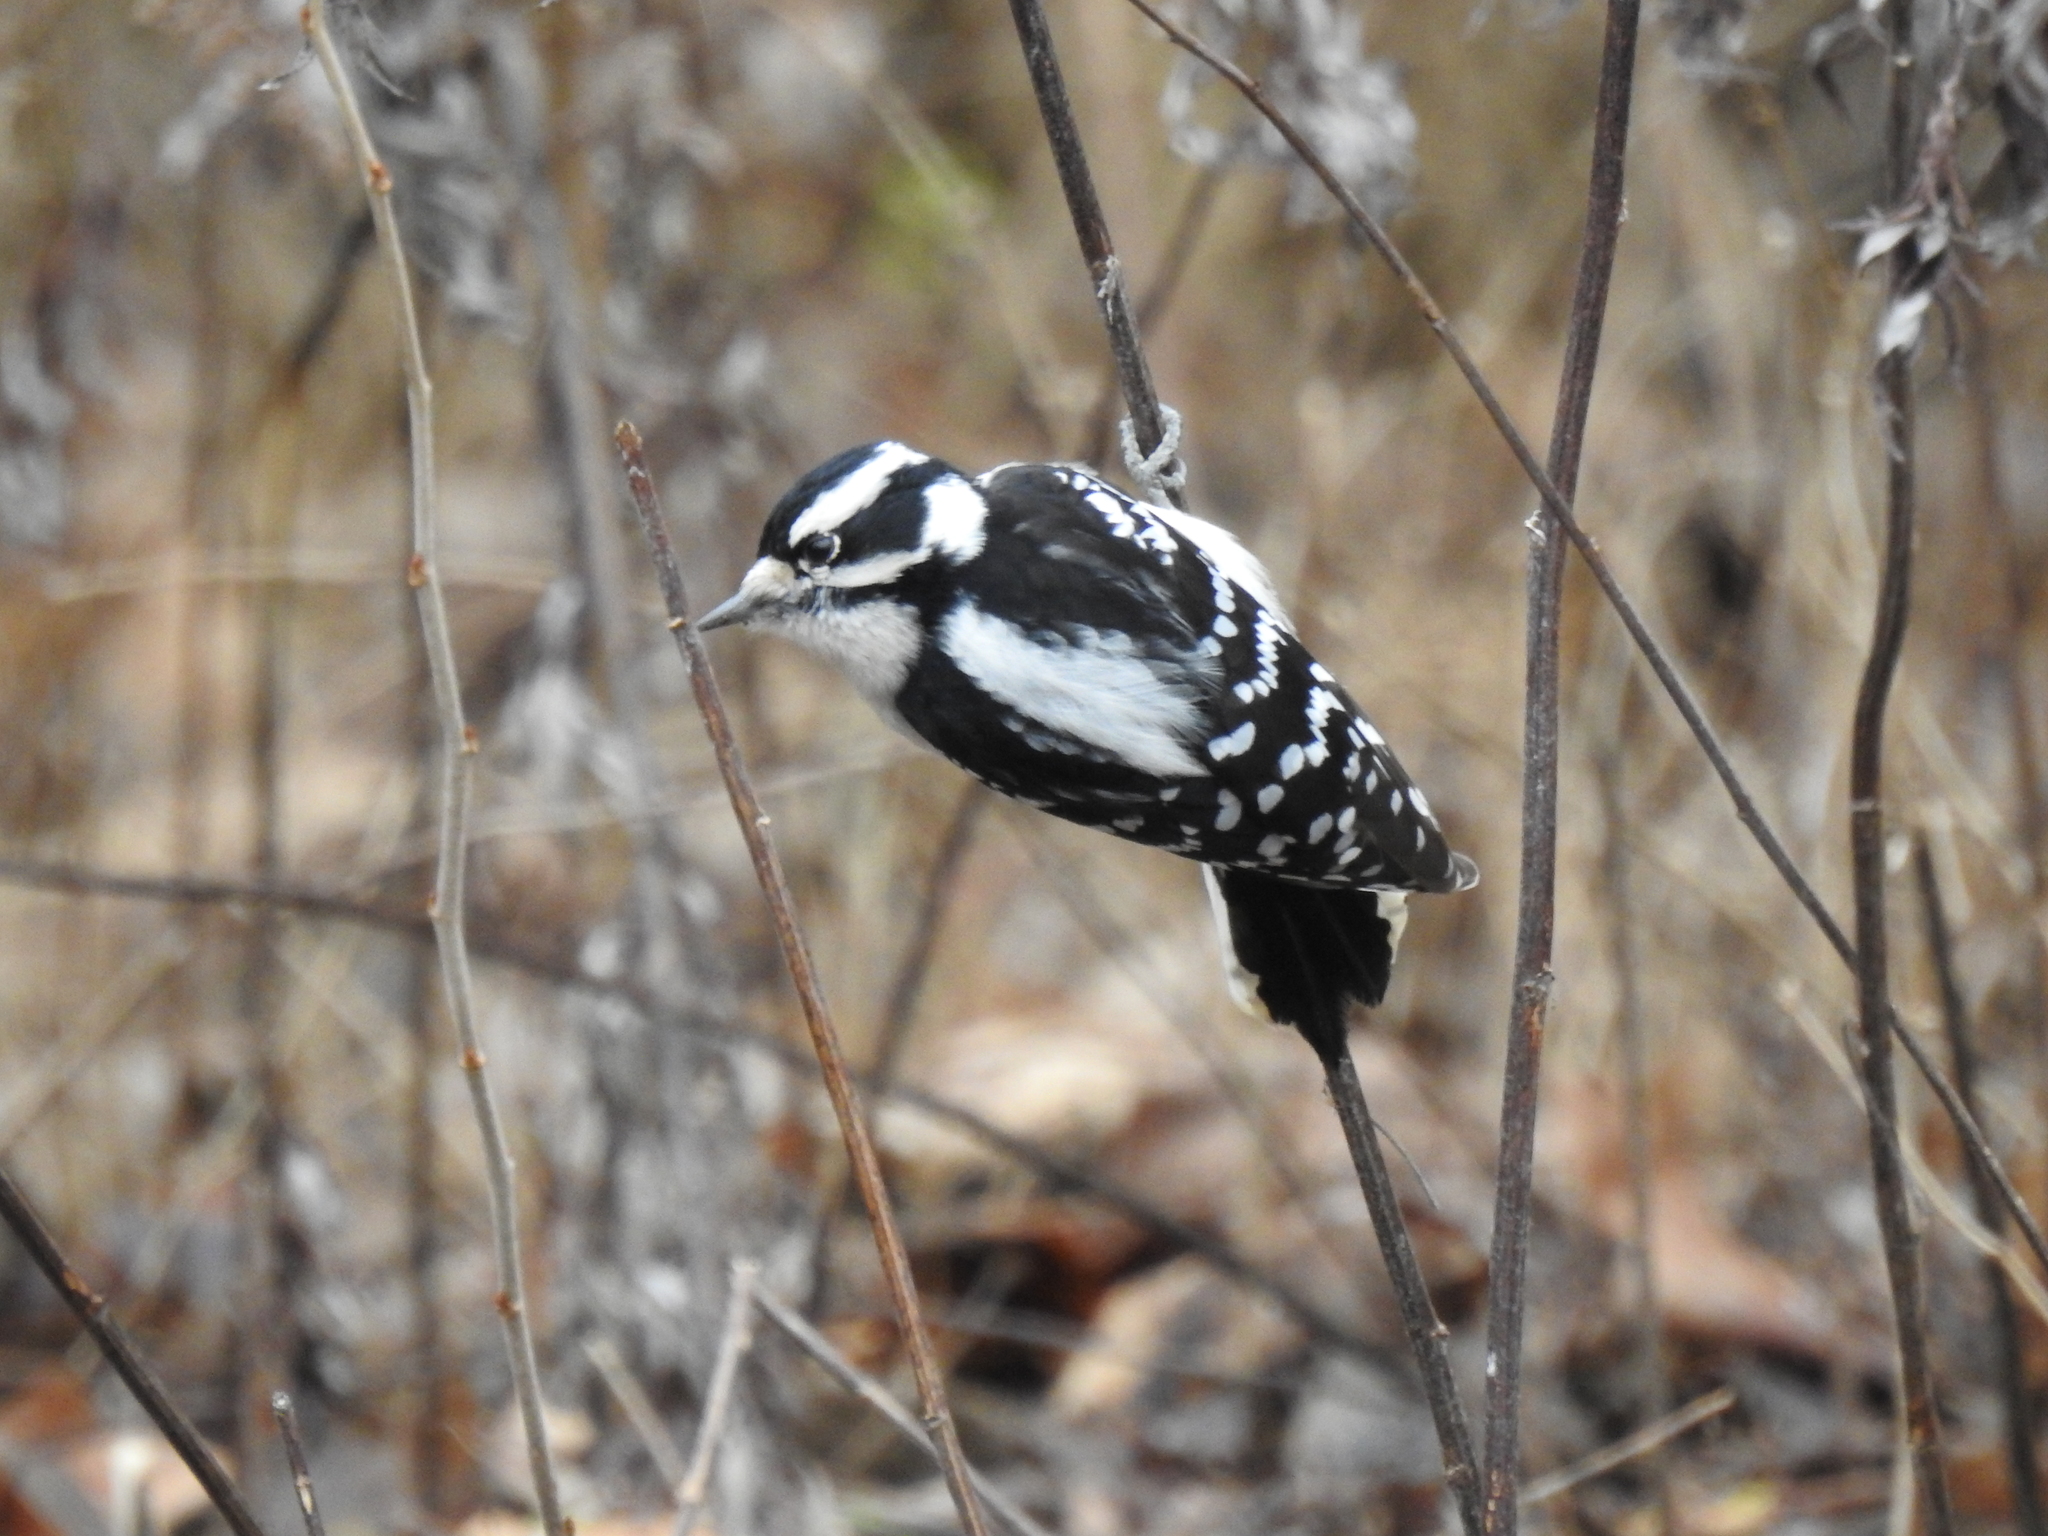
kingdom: Animalia
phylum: Chordata
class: Aves
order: Piciformes
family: Picidae
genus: Dryobates
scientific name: Dryobates pubescens
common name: Downy woodpecker
